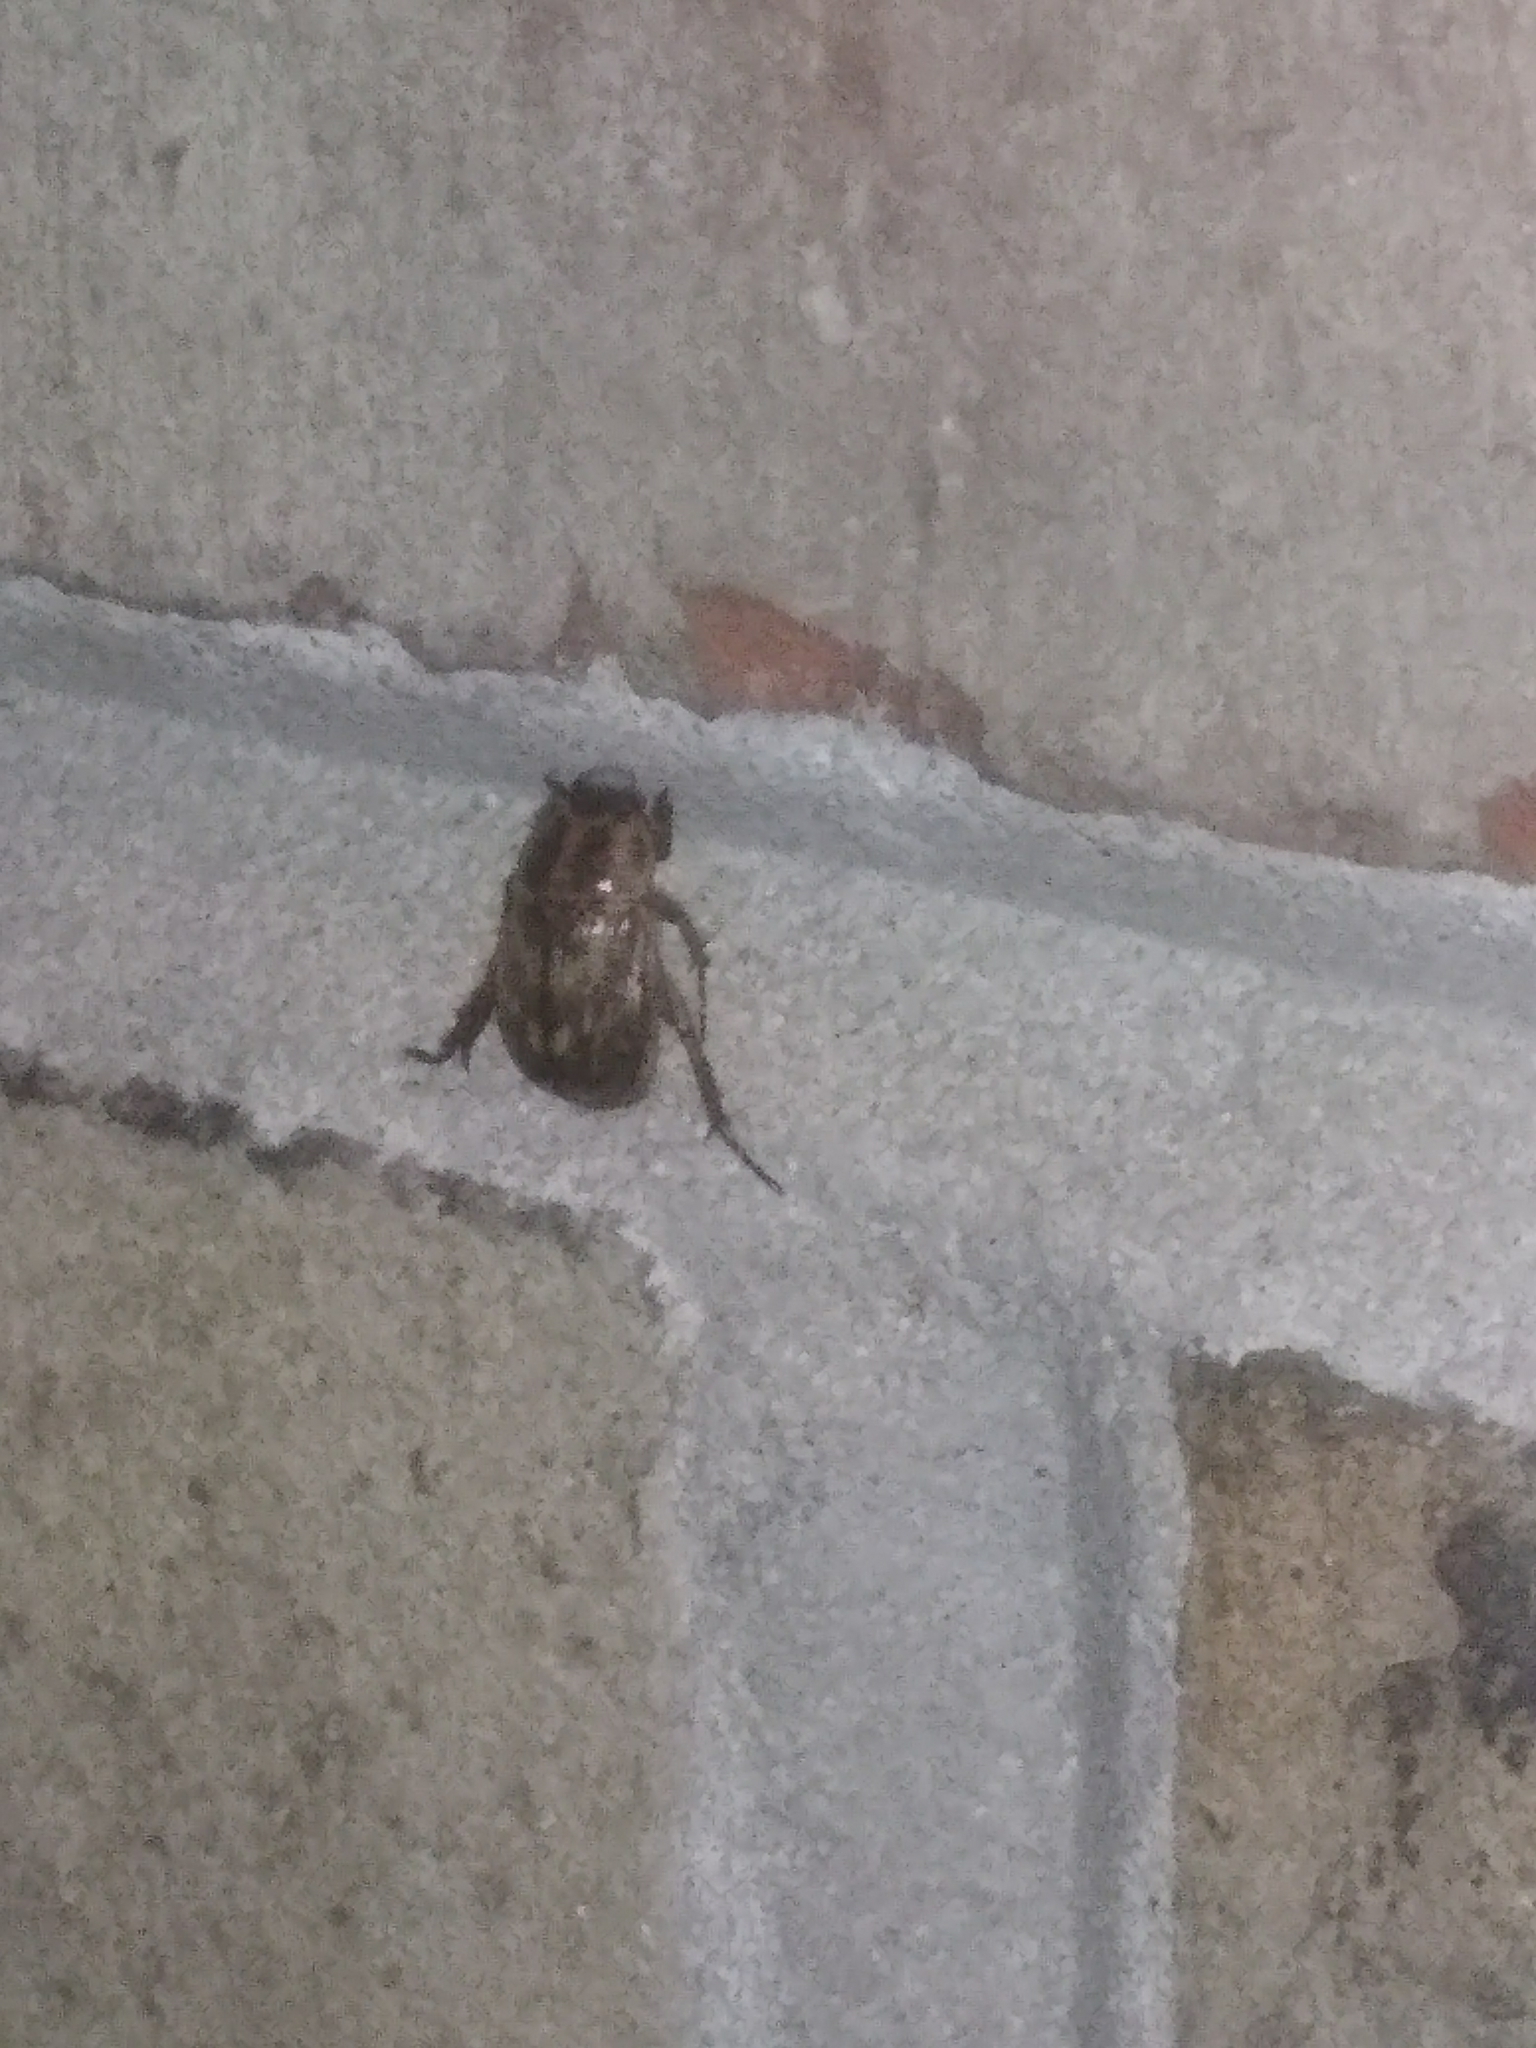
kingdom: Animalia
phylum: Arthropoda
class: Insecta
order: Coleoptera
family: Scarabaeidae
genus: Exomala
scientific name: Exomala orientalis
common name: Oriental beetle
